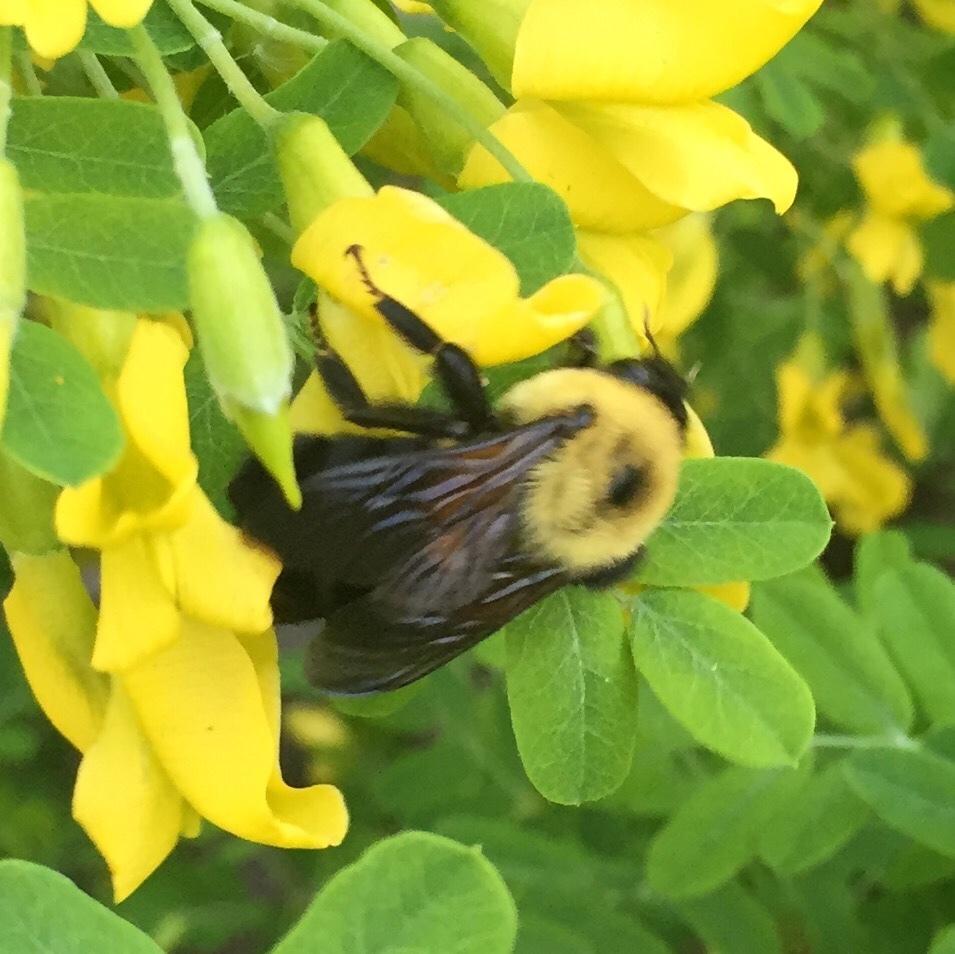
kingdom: Animalia
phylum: Arthropoda
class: Insecta
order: Hymenoptera
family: Apidae
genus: Bombus
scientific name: Bombus griseocollis
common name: Brown-belted bumble bee
